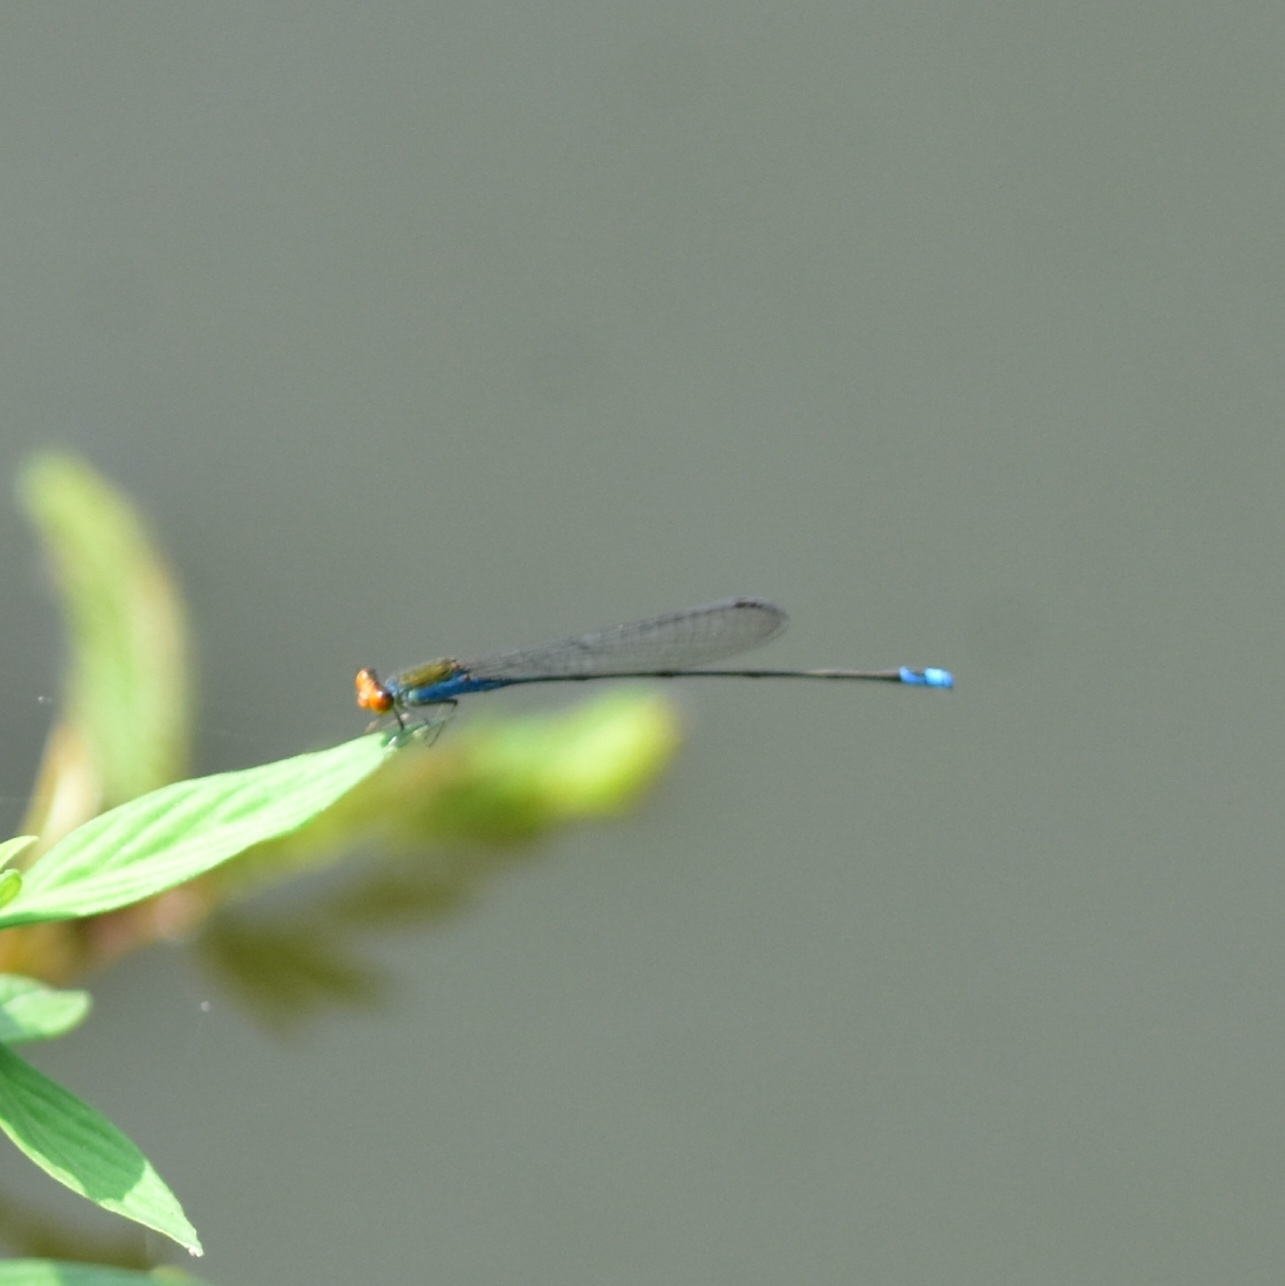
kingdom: Animalia
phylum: Arthropoda
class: Insecta
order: Odonata
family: Coenagrionidae
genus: Pseudagrion
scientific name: Pseudagrion rubriceps
